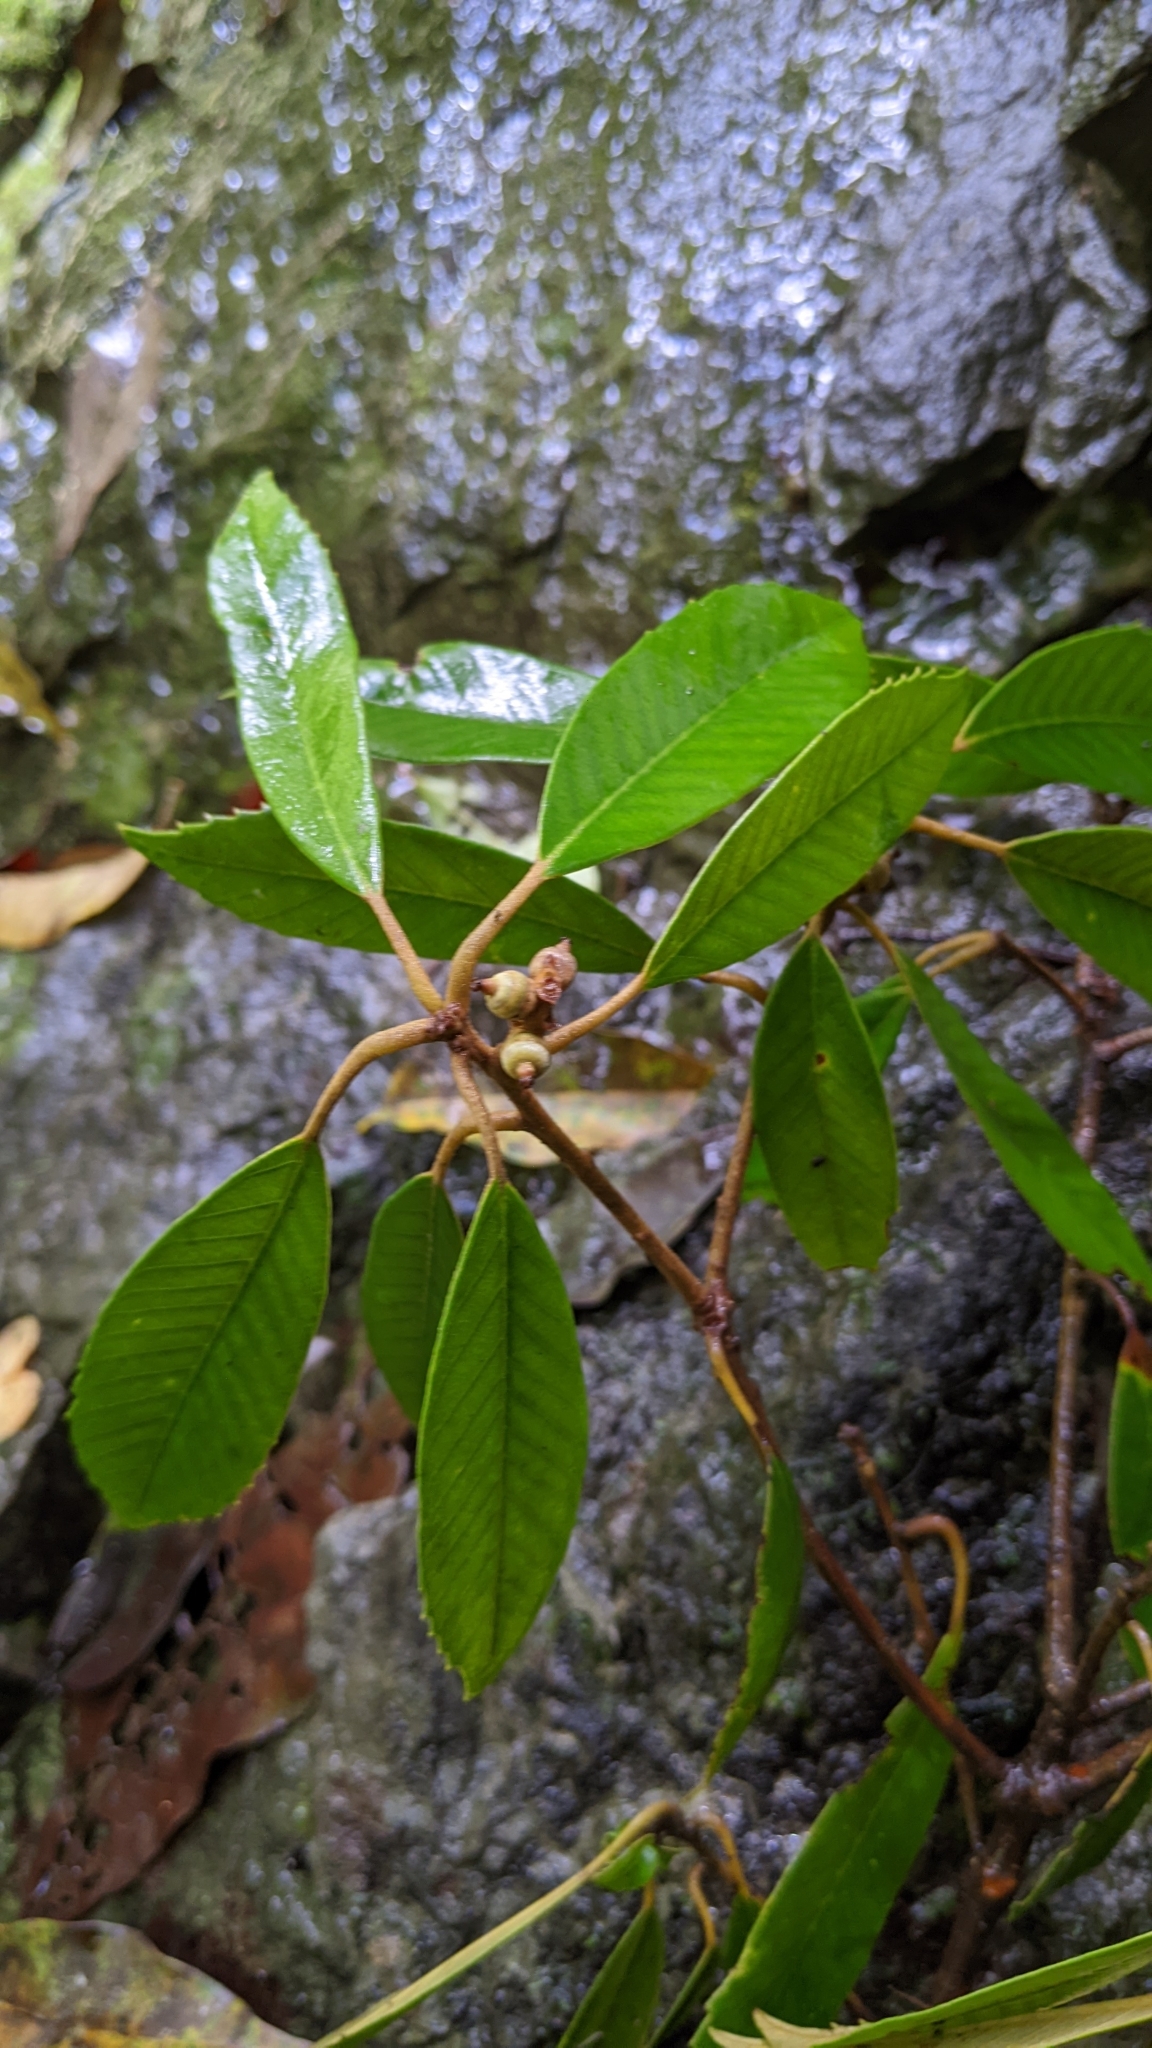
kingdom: Plantae
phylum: Tracheophyta
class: Magnoliopsida
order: Fagales
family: Fagaceae
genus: Quercus
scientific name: Quercus gilva
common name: Redbark oak
